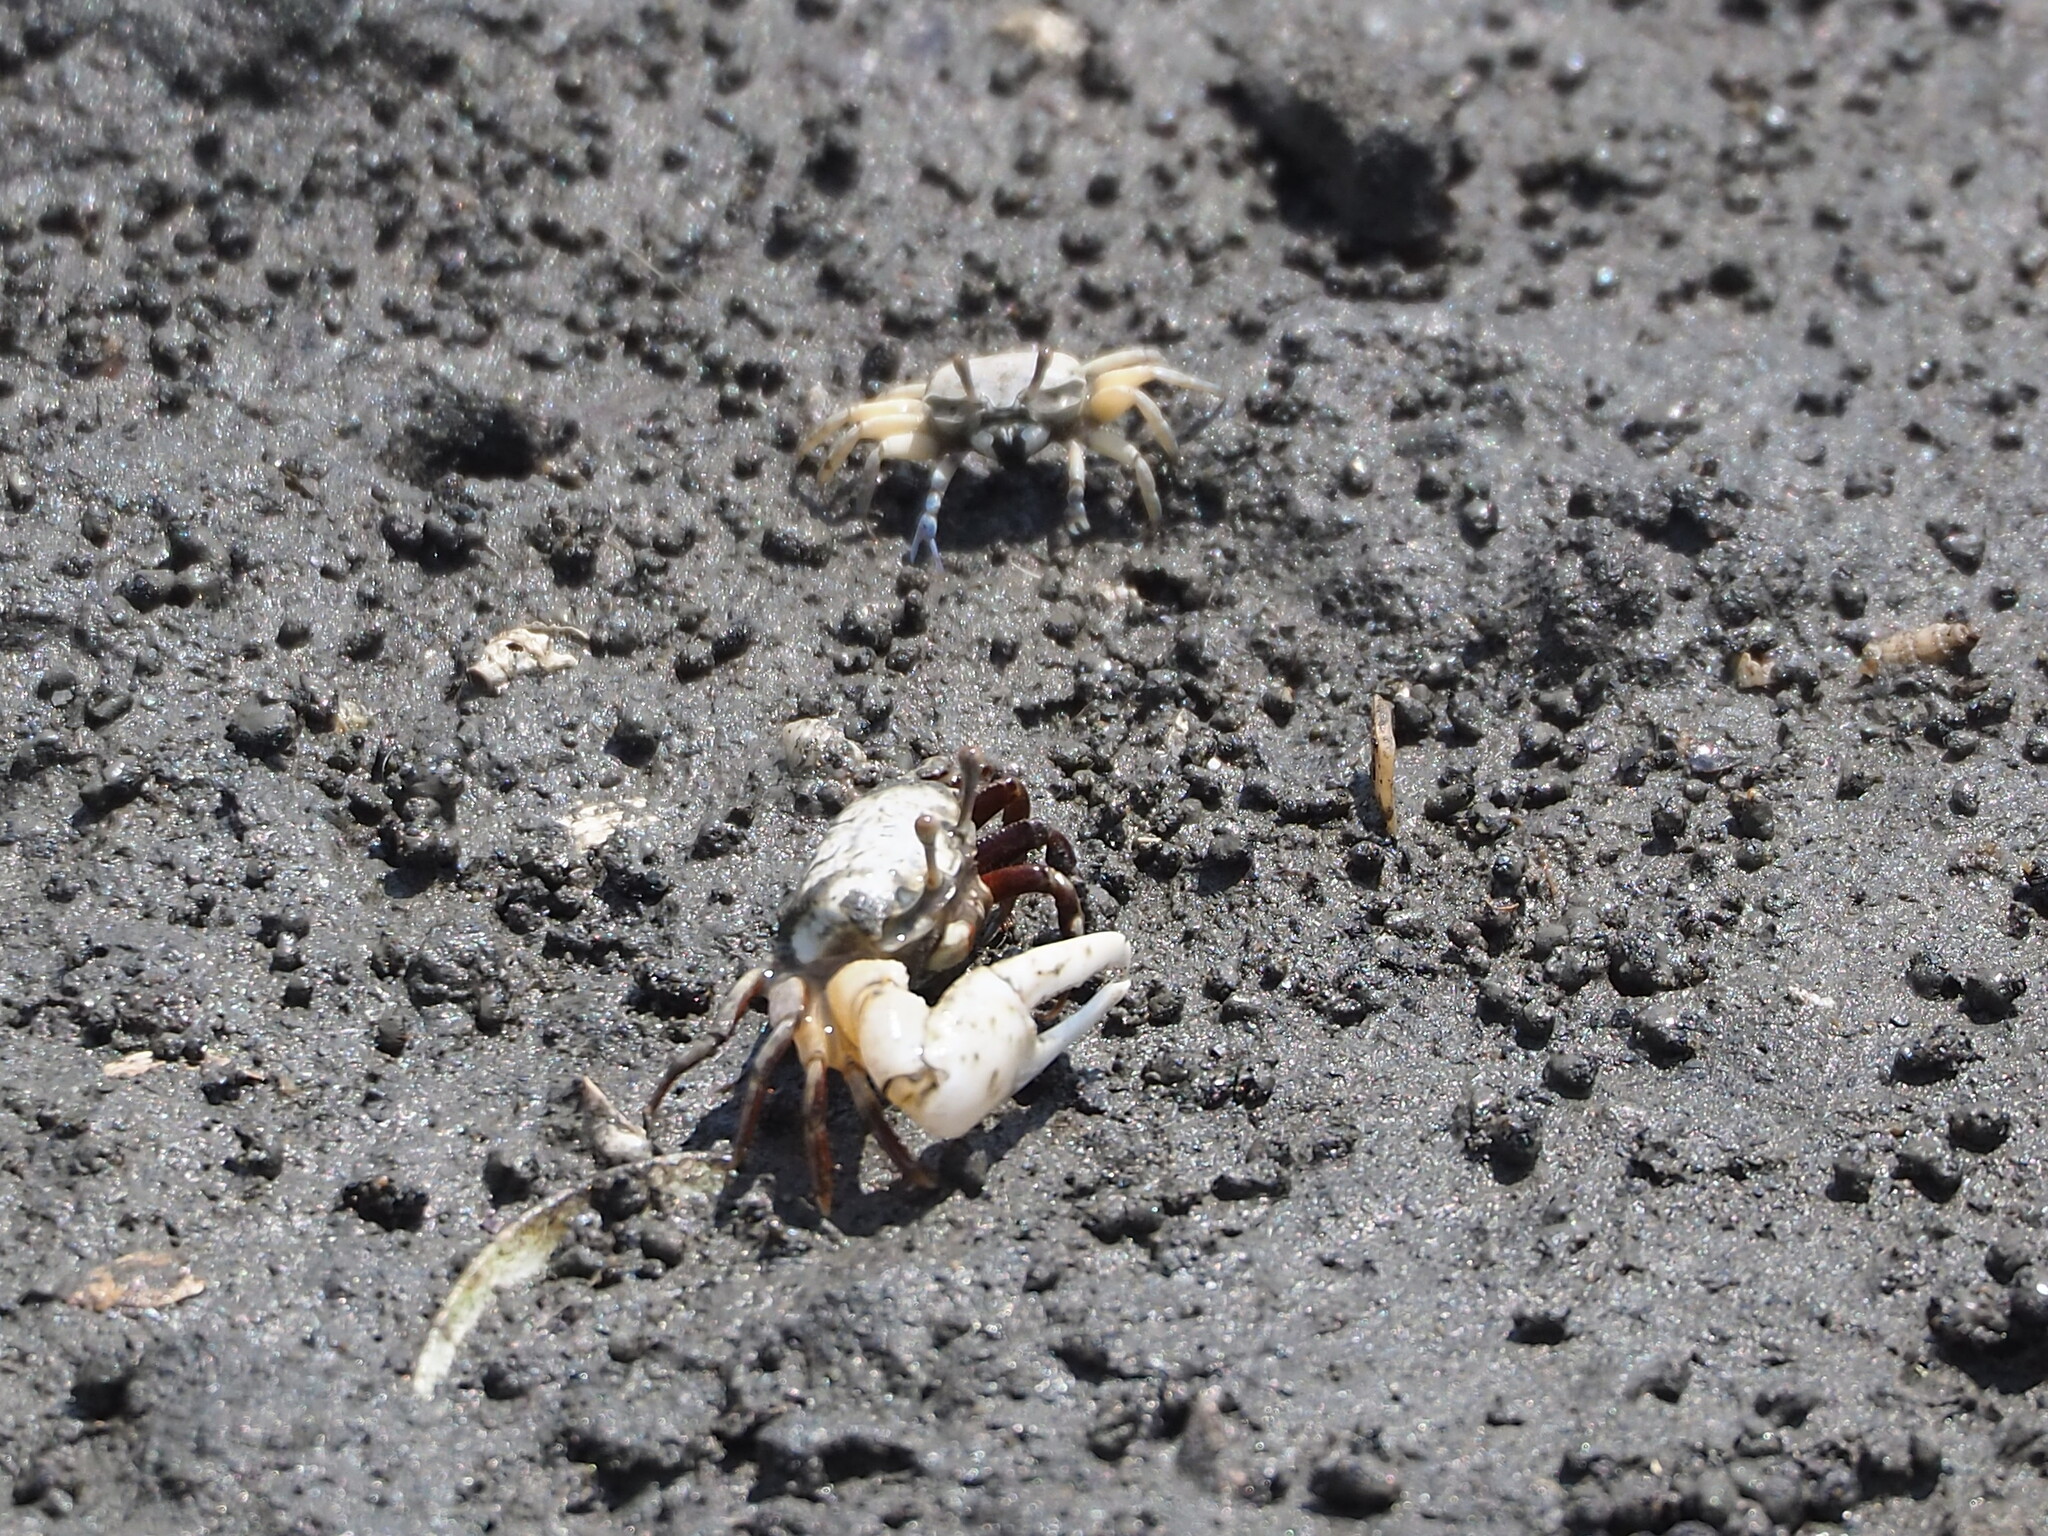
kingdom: Animalia
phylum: Arthropoda
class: Malacostraca
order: Decapoda
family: Ocypodidae
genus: Austruca
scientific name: Austruca lactea
